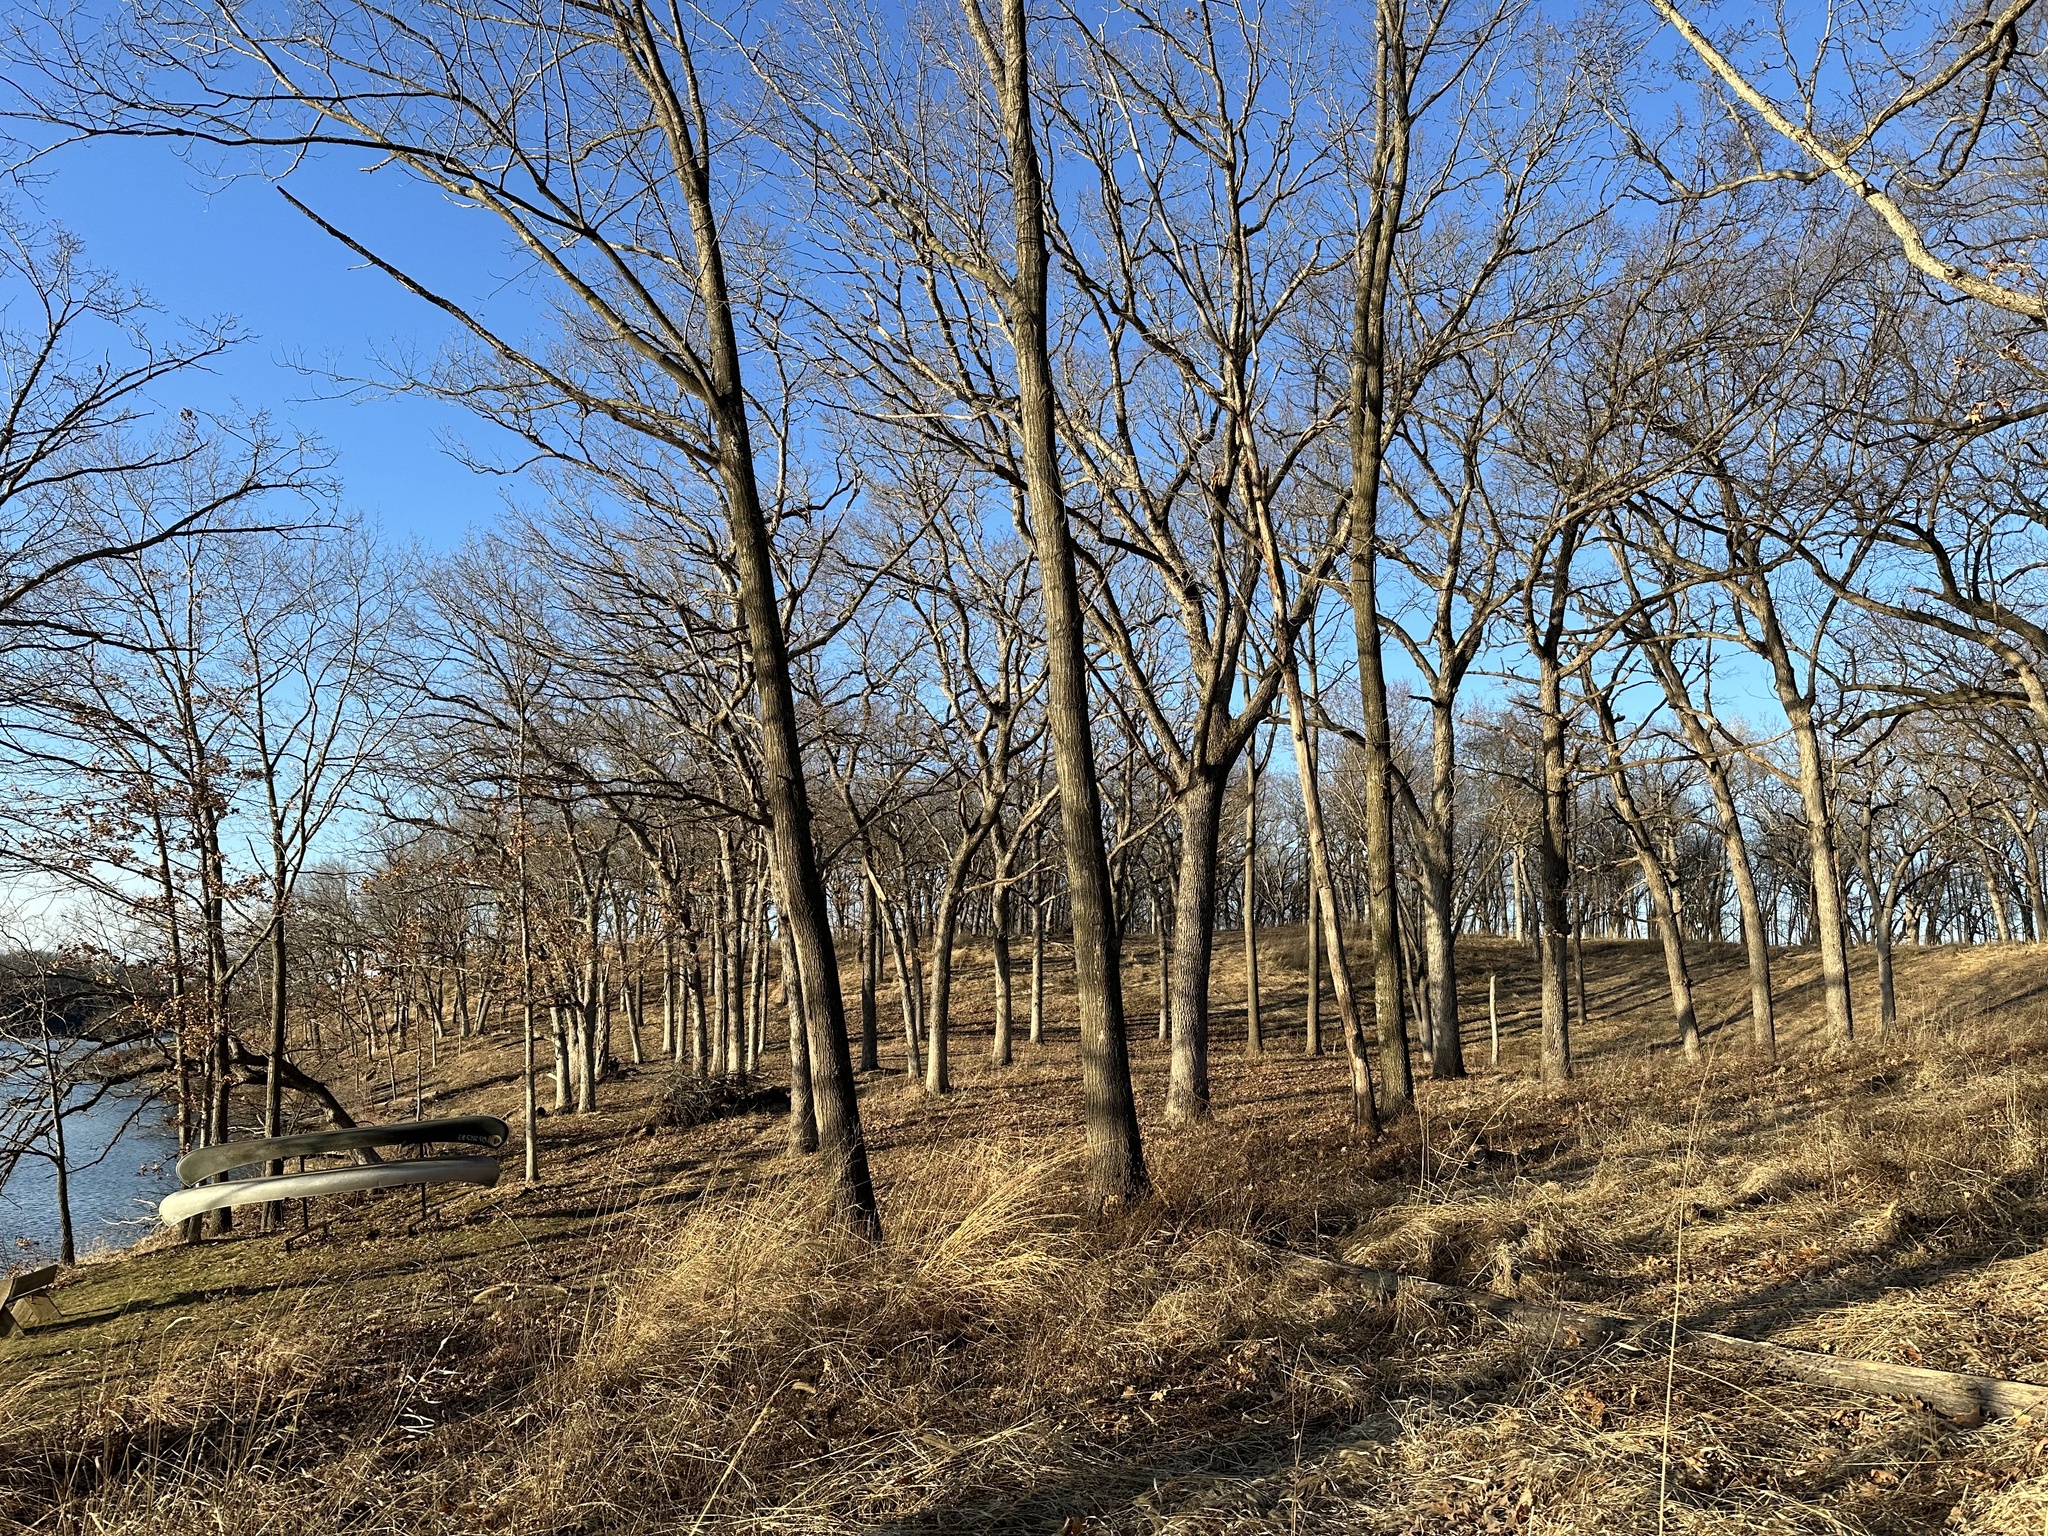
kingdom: Plantae
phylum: Tracheophyta
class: Magnoliopsida
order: Fagales
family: Fagaceae
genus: Quercus
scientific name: Quercus alba
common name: White oak
